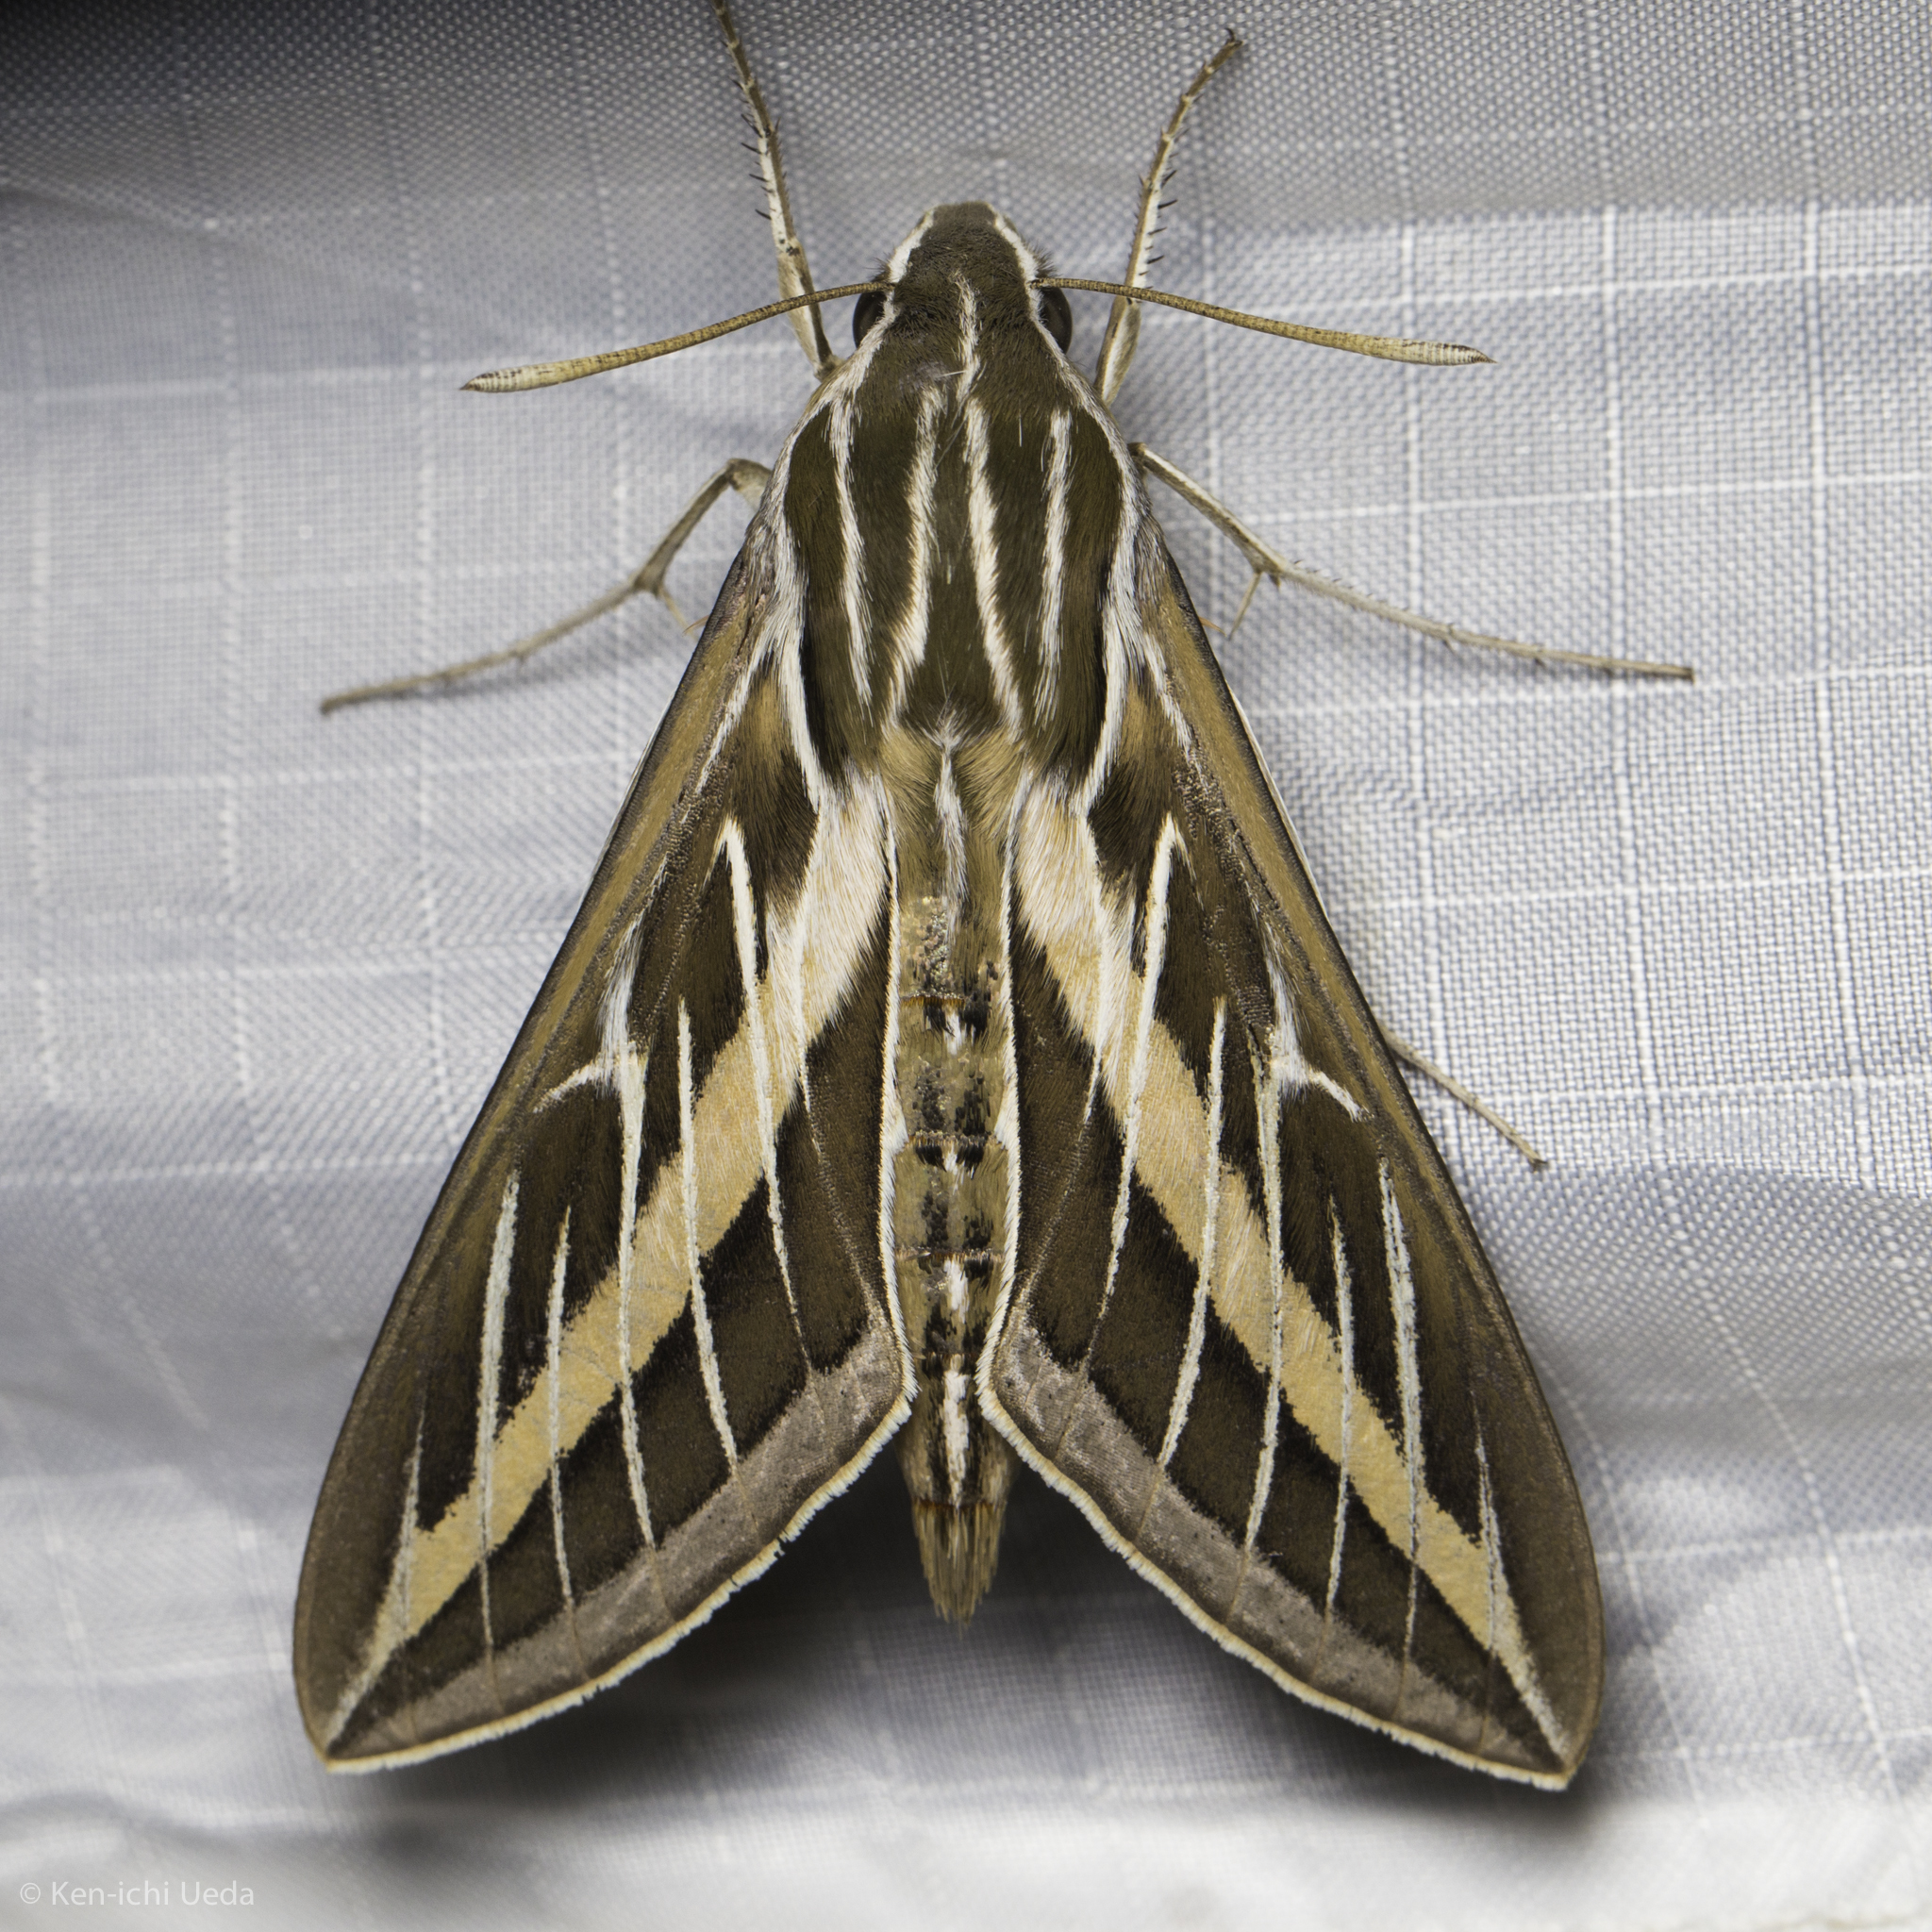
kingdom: Animalia
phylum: Arthropoda
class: Insecta
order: Lepidoptera
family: Sphingidae
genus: Hyles
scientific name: Hyles lineata
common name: White-lined sphinx
